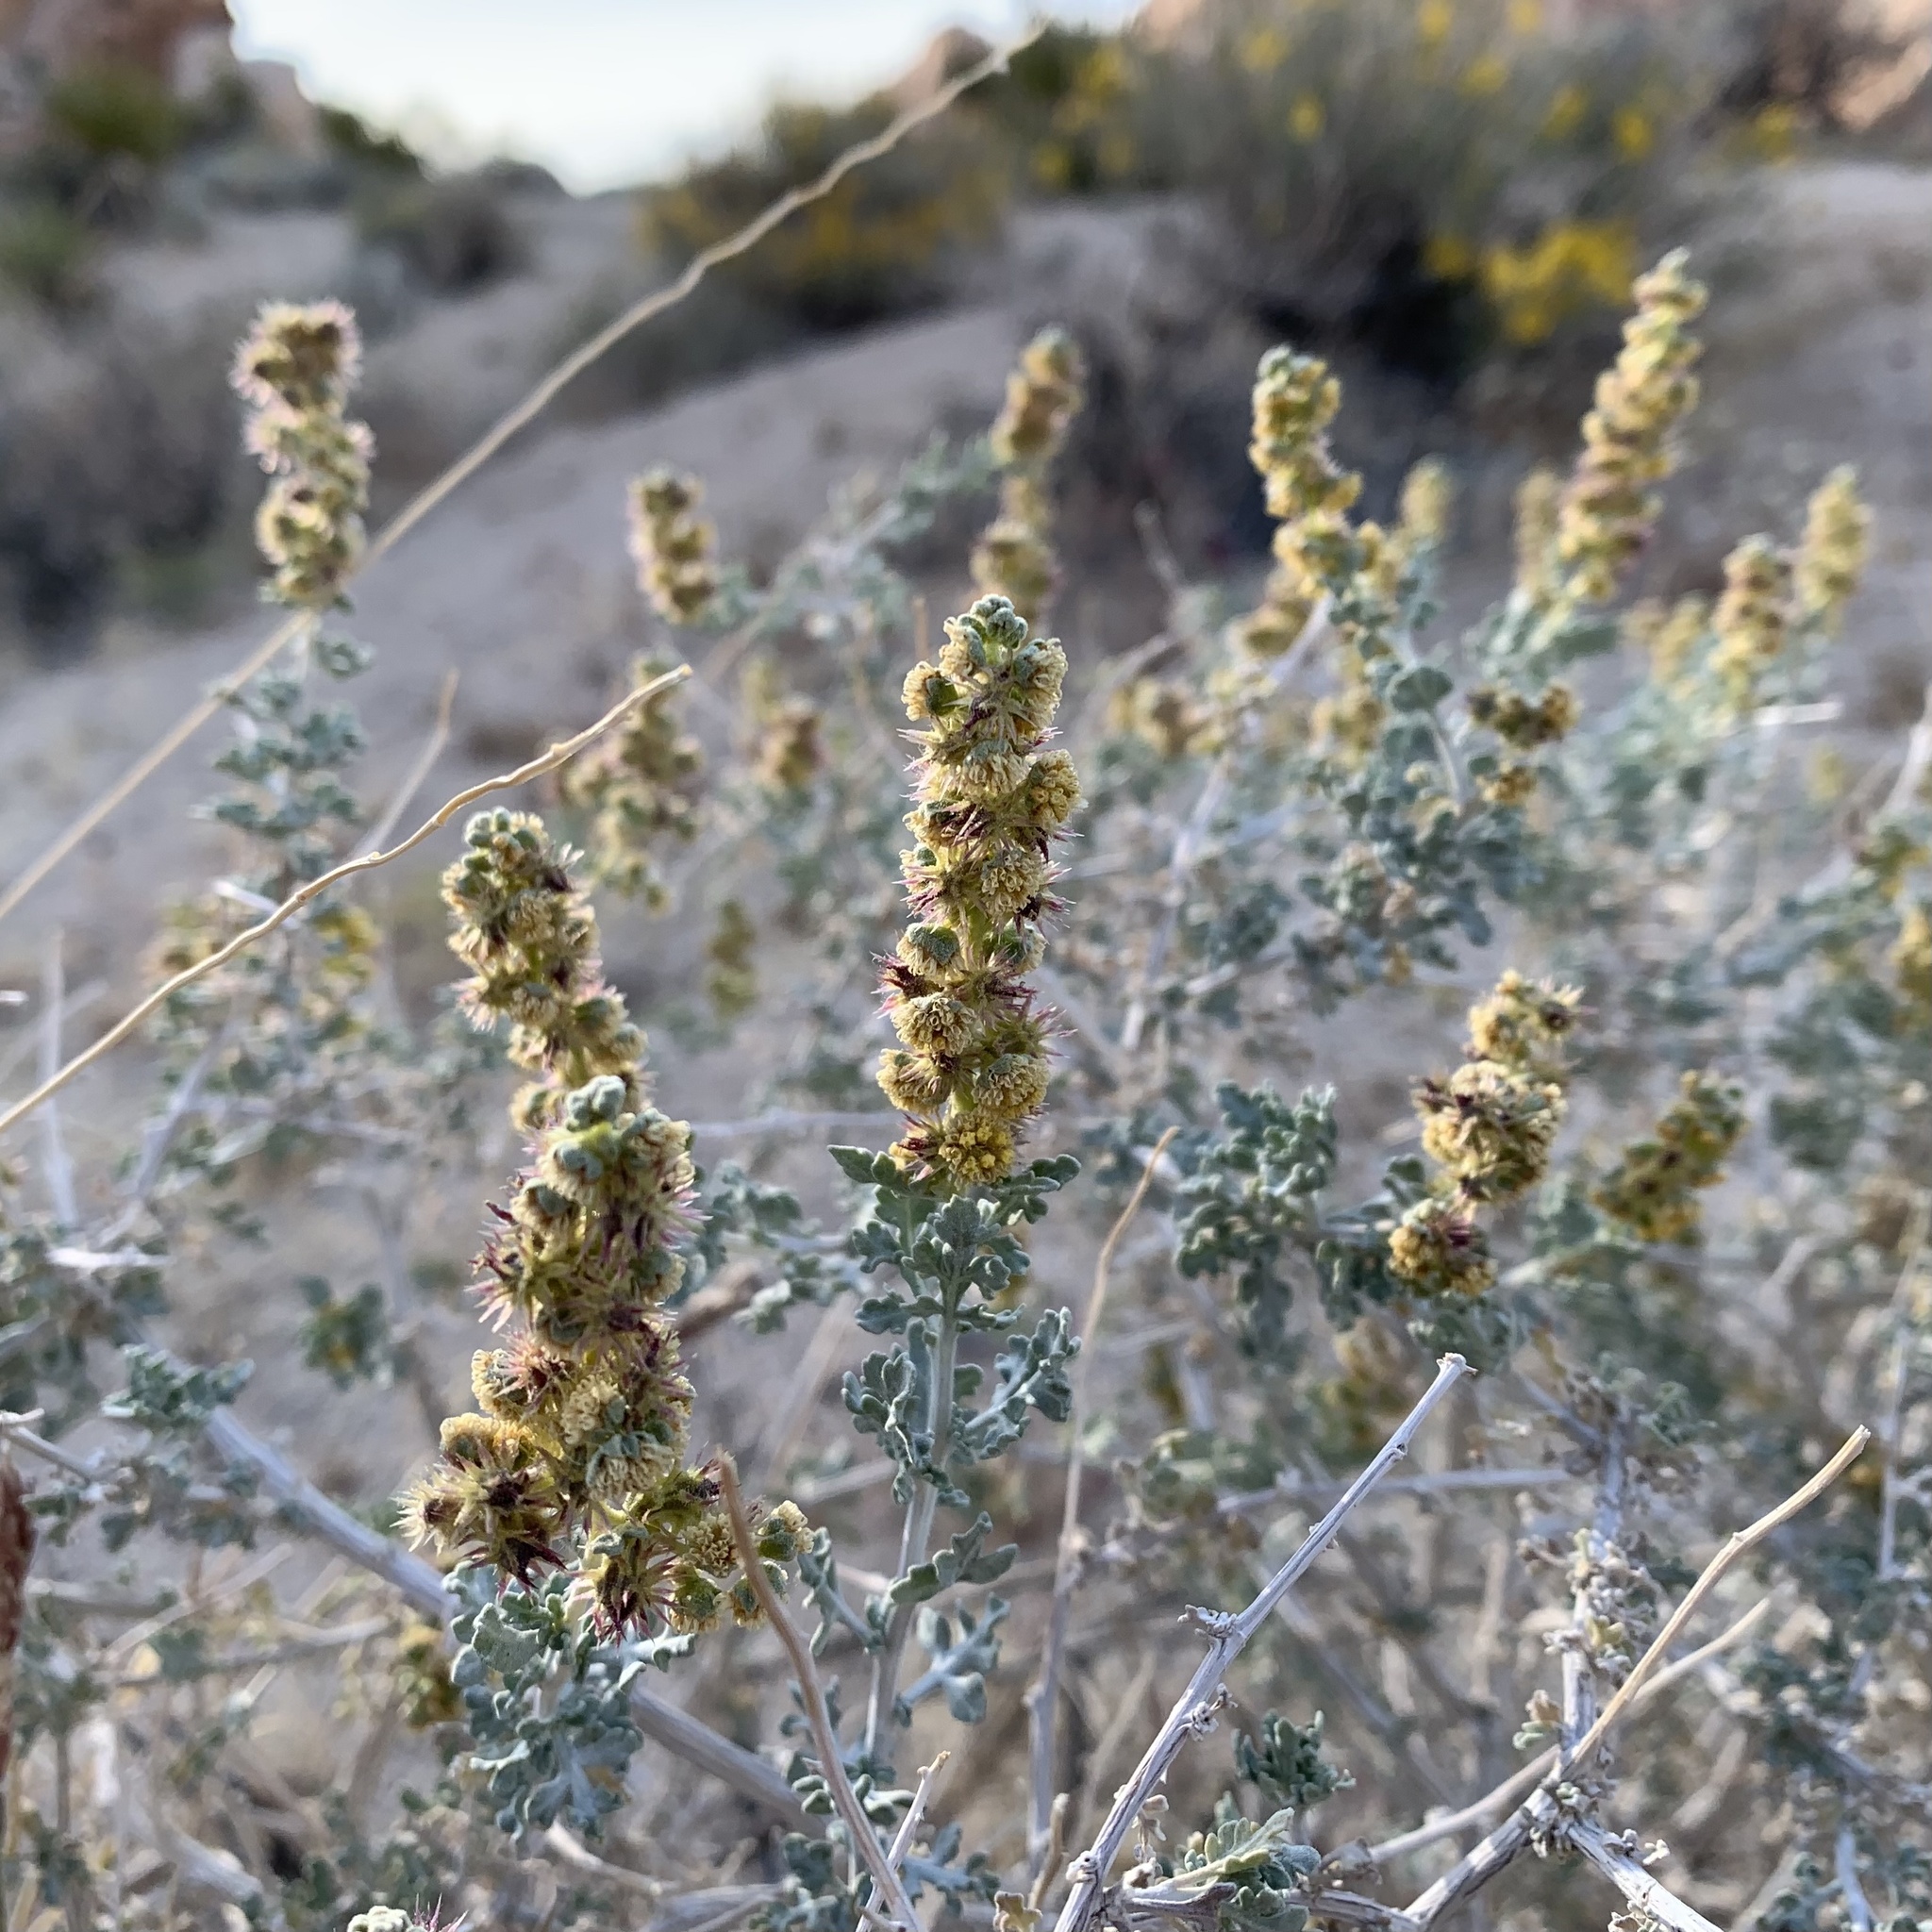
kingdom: Plantae
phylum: Tracheophyta
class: Magnoliopsida
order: Asterales
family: Asteraceae
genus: Ambrosia
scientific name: Ambrosia dumosa
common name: Bur-sage
